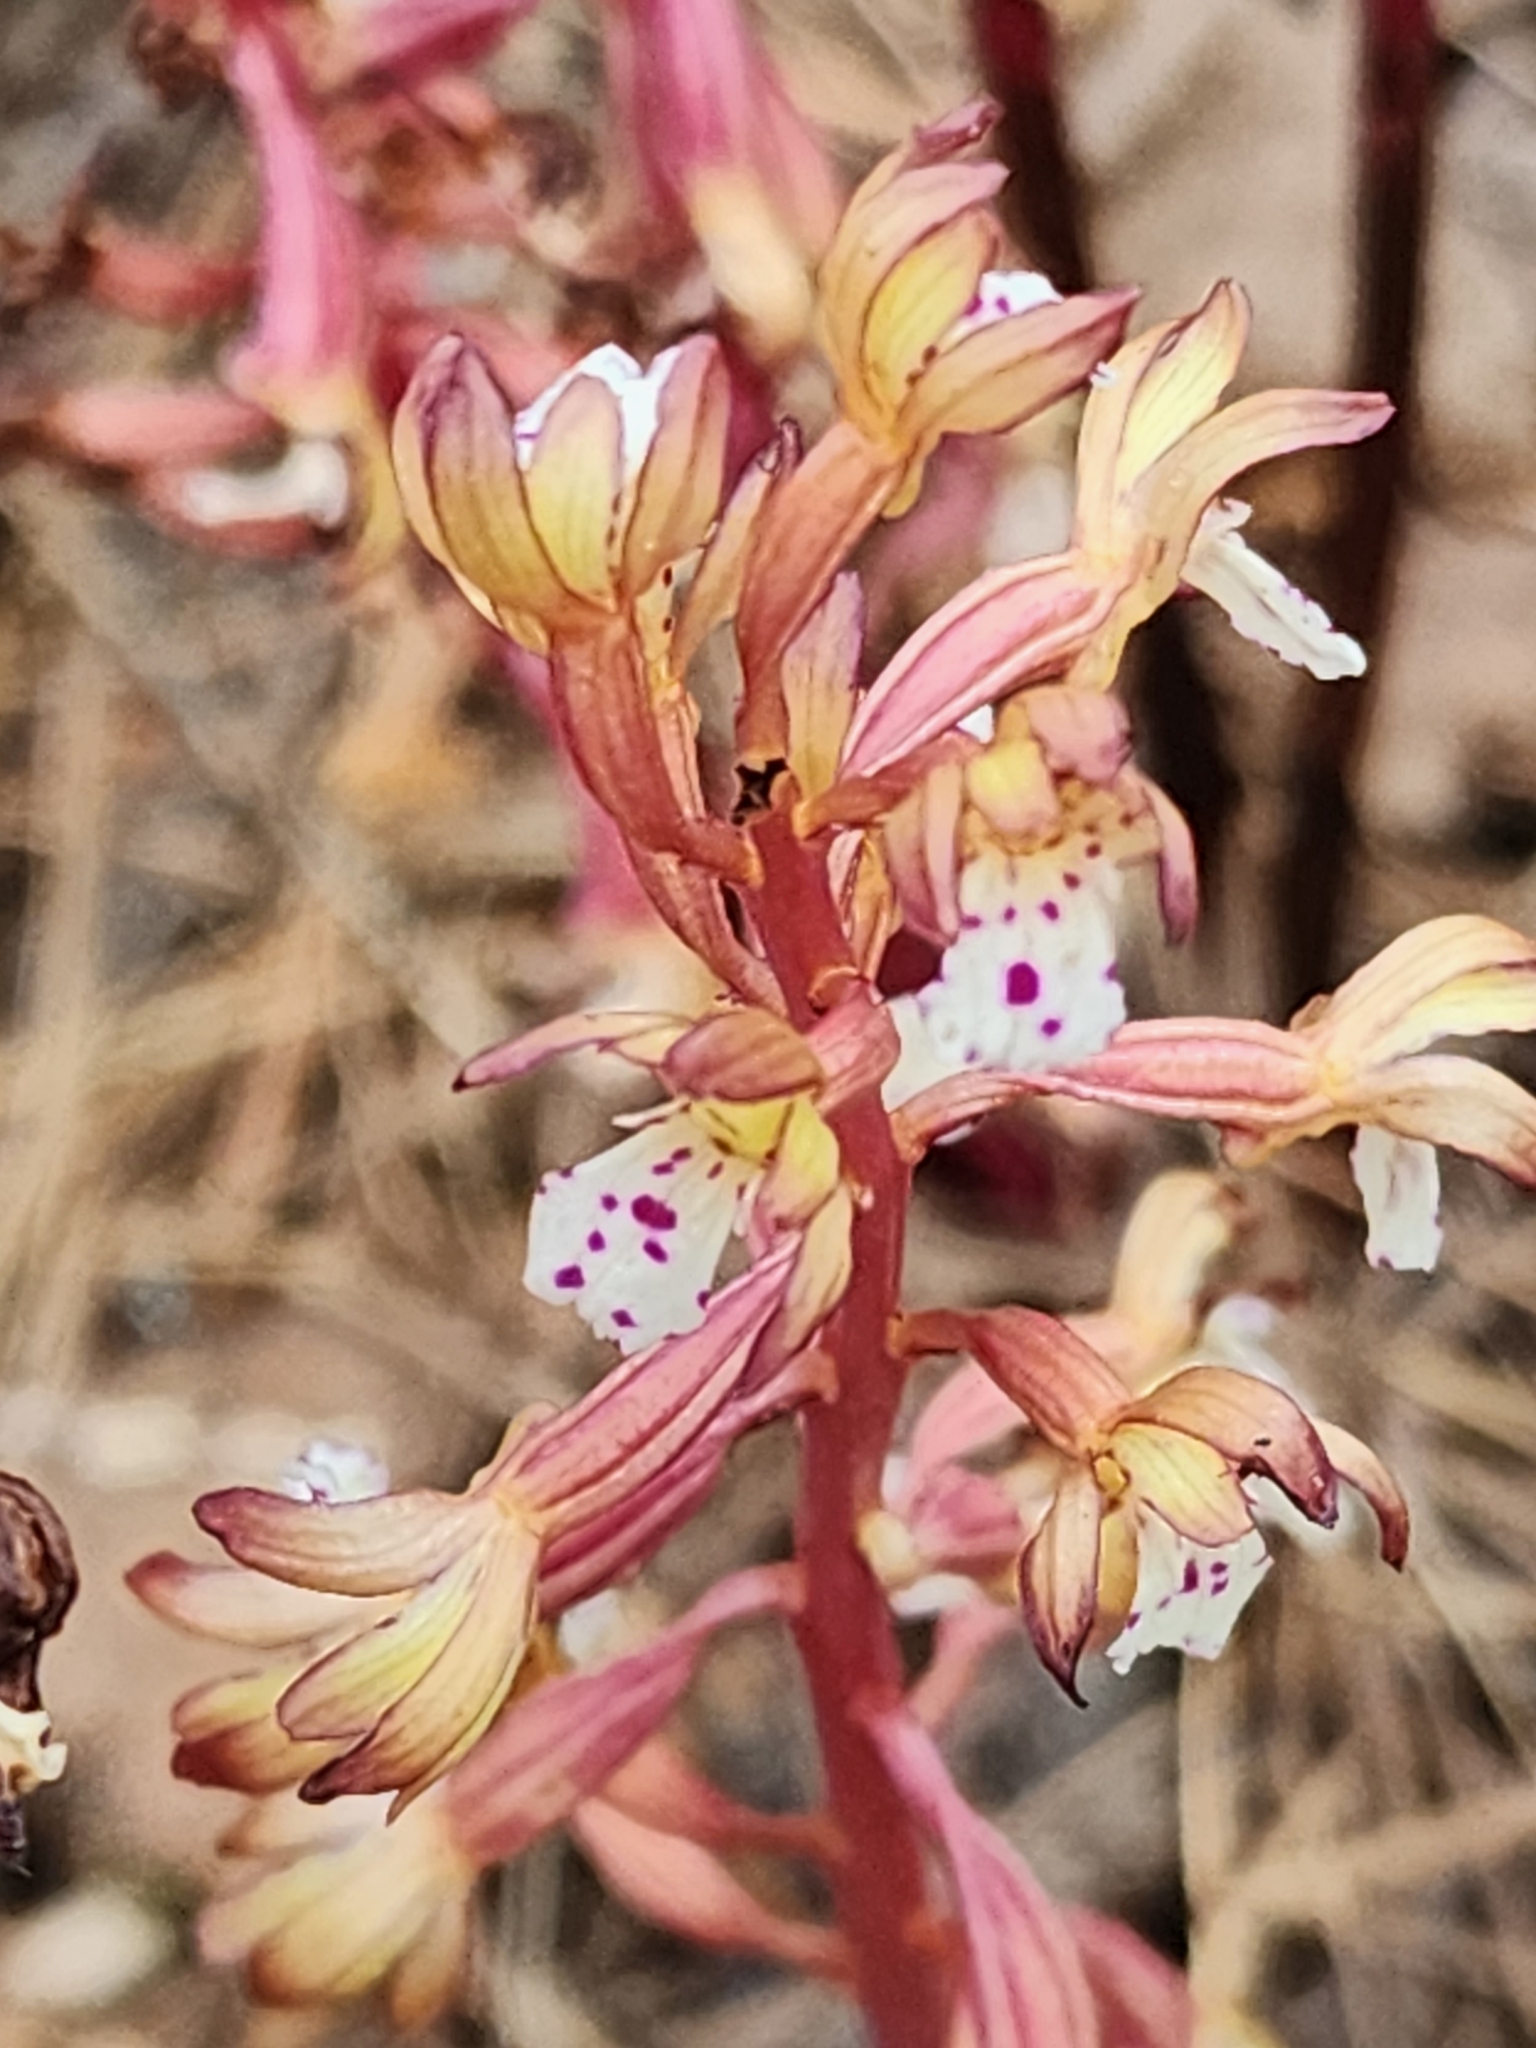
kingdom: Plantae
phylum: Tracheophyta
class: Liliopsida
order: Asparagales
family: Orchidaceae
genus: Corallorhiza
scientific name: Corallorhiza maculata
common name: Spotted coralroot
